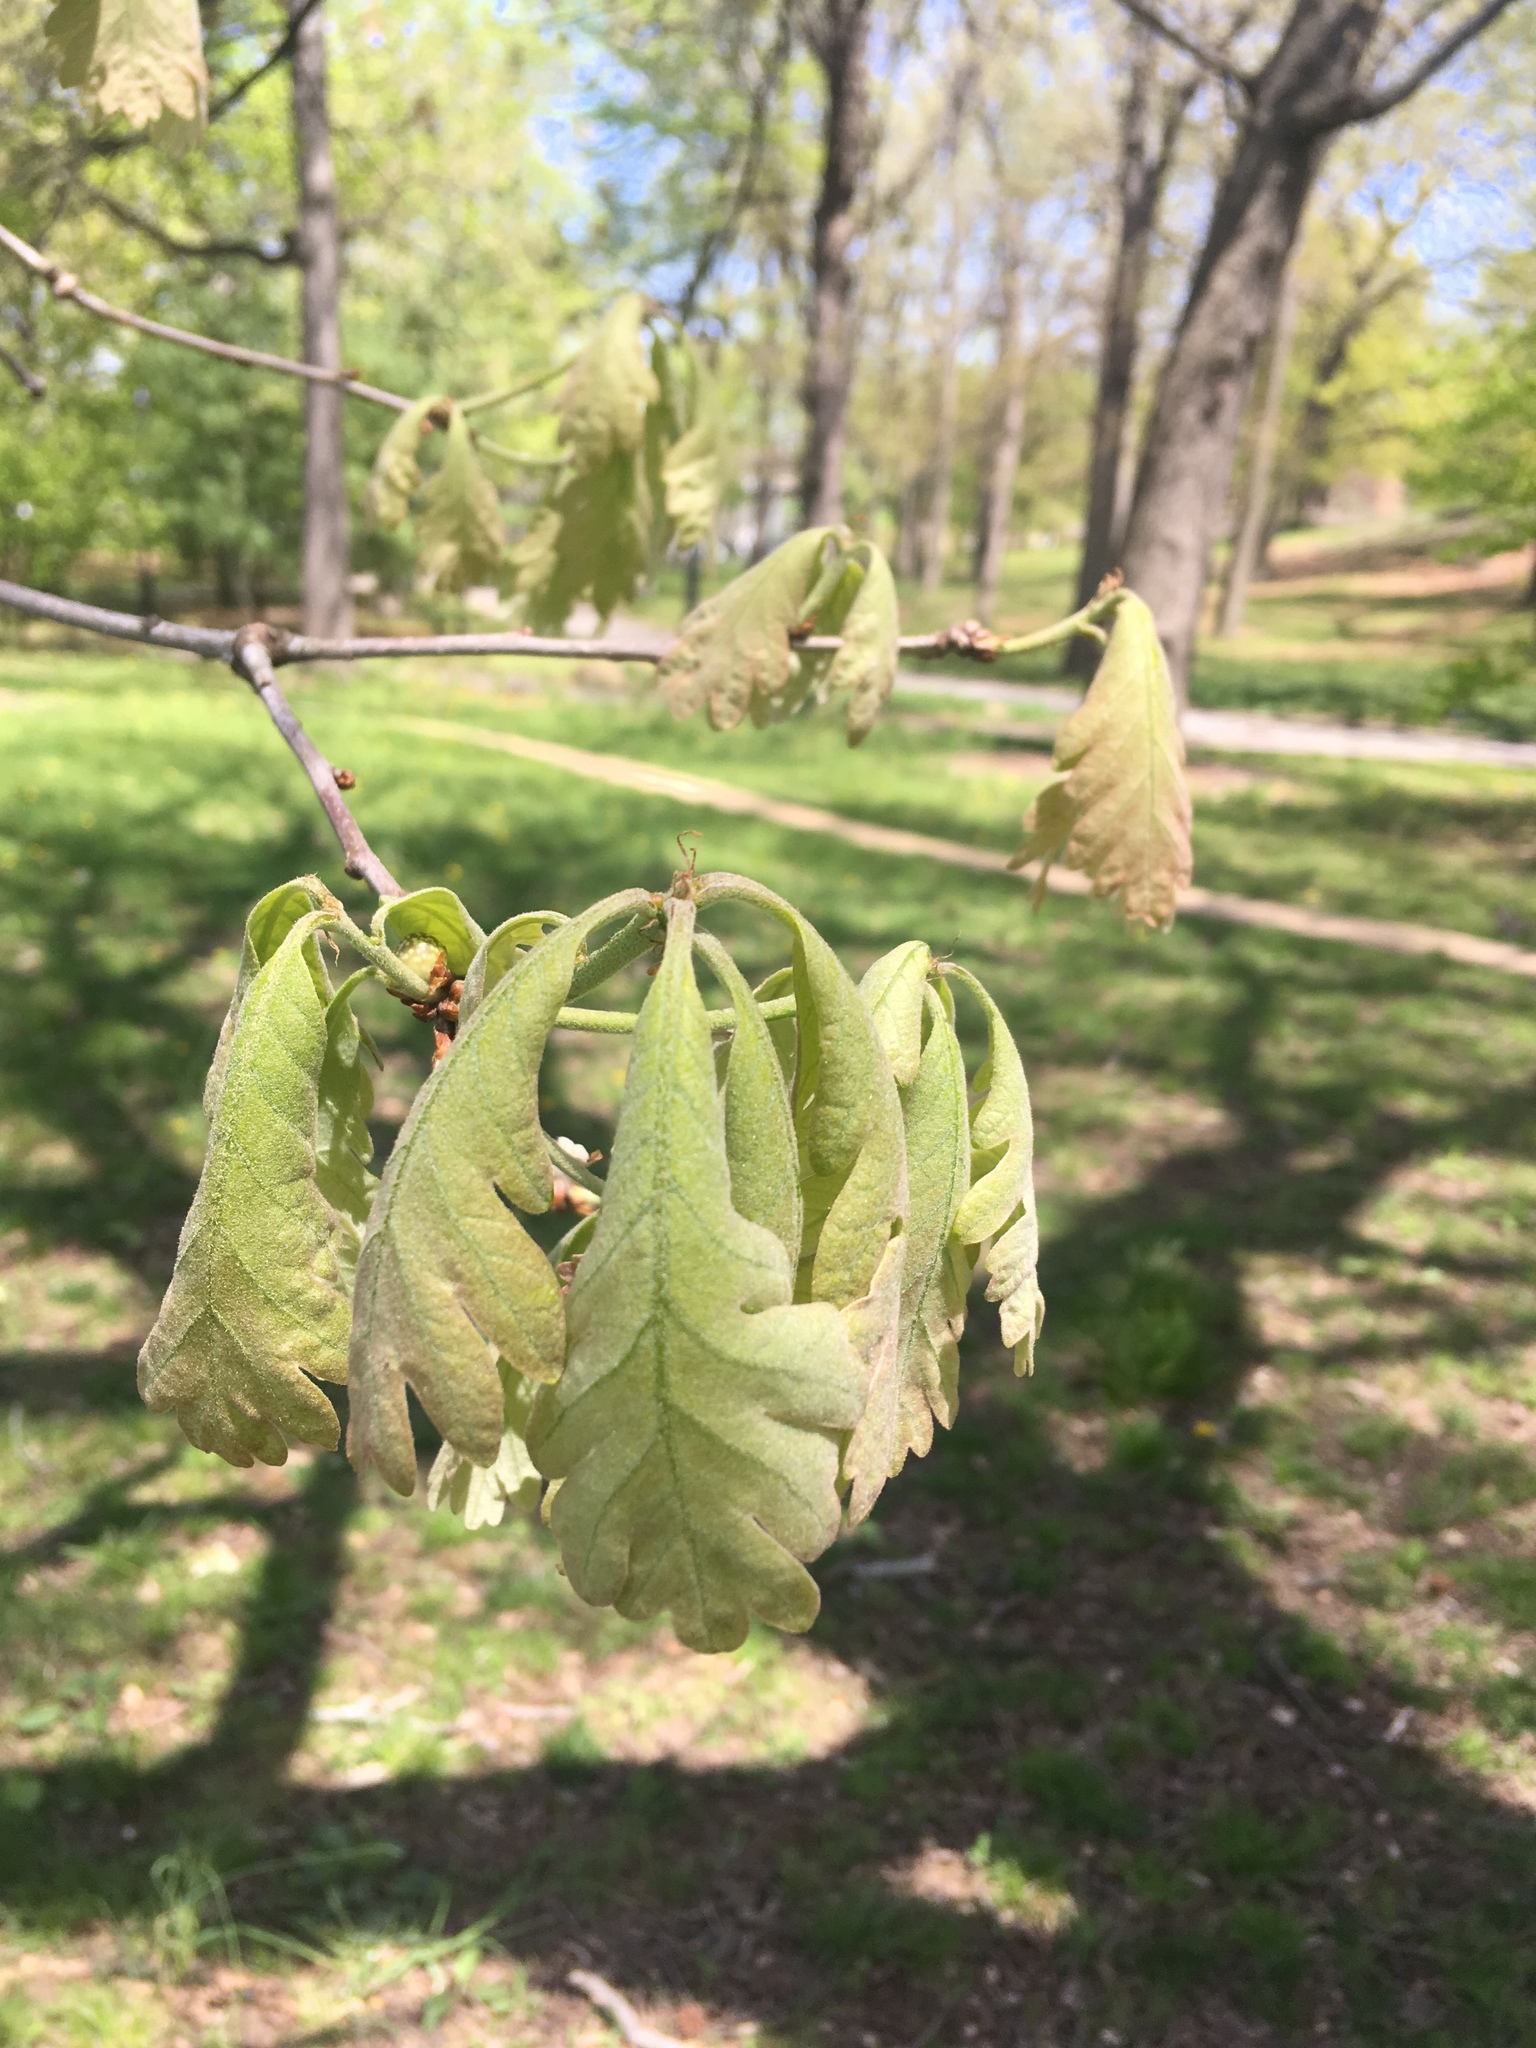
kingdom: Plantae
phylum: Tracheophyta
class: Magnoliopsida
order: Fagales
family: Fagaceae
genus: Quercus
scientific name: Quercus alba
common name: White oak
